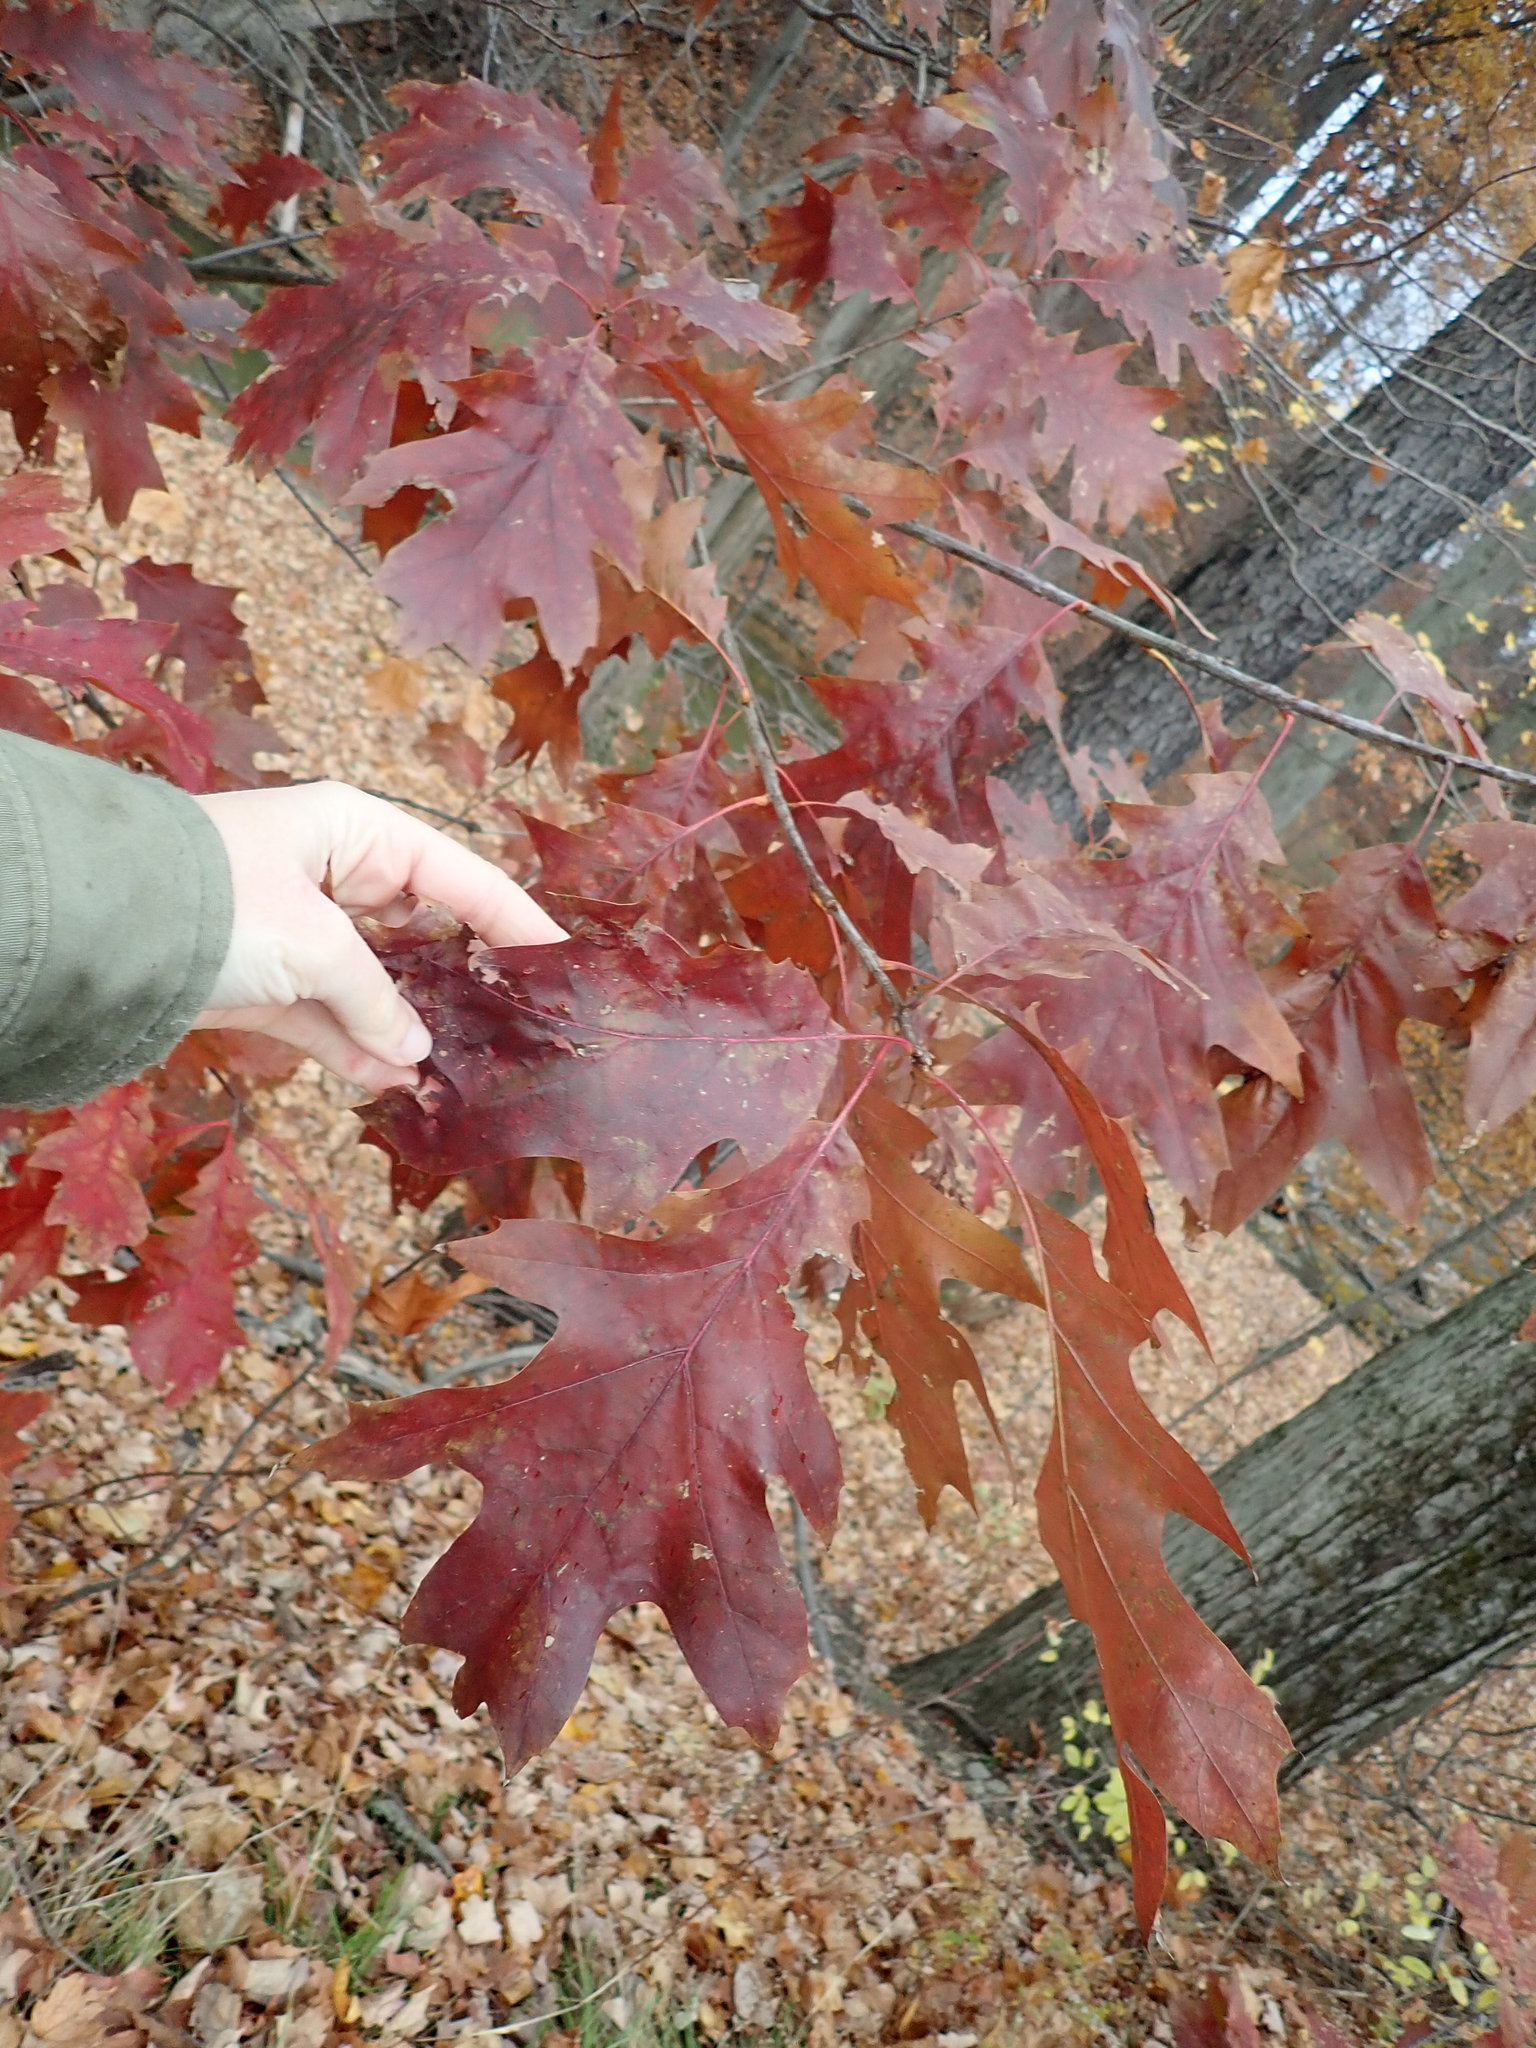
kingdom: Plantae
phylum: Tracheophyta
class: Magnoliopsida
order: Fagales
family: Fagaceae
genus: Quercus
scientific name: Quercus rubra
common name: Red oak
